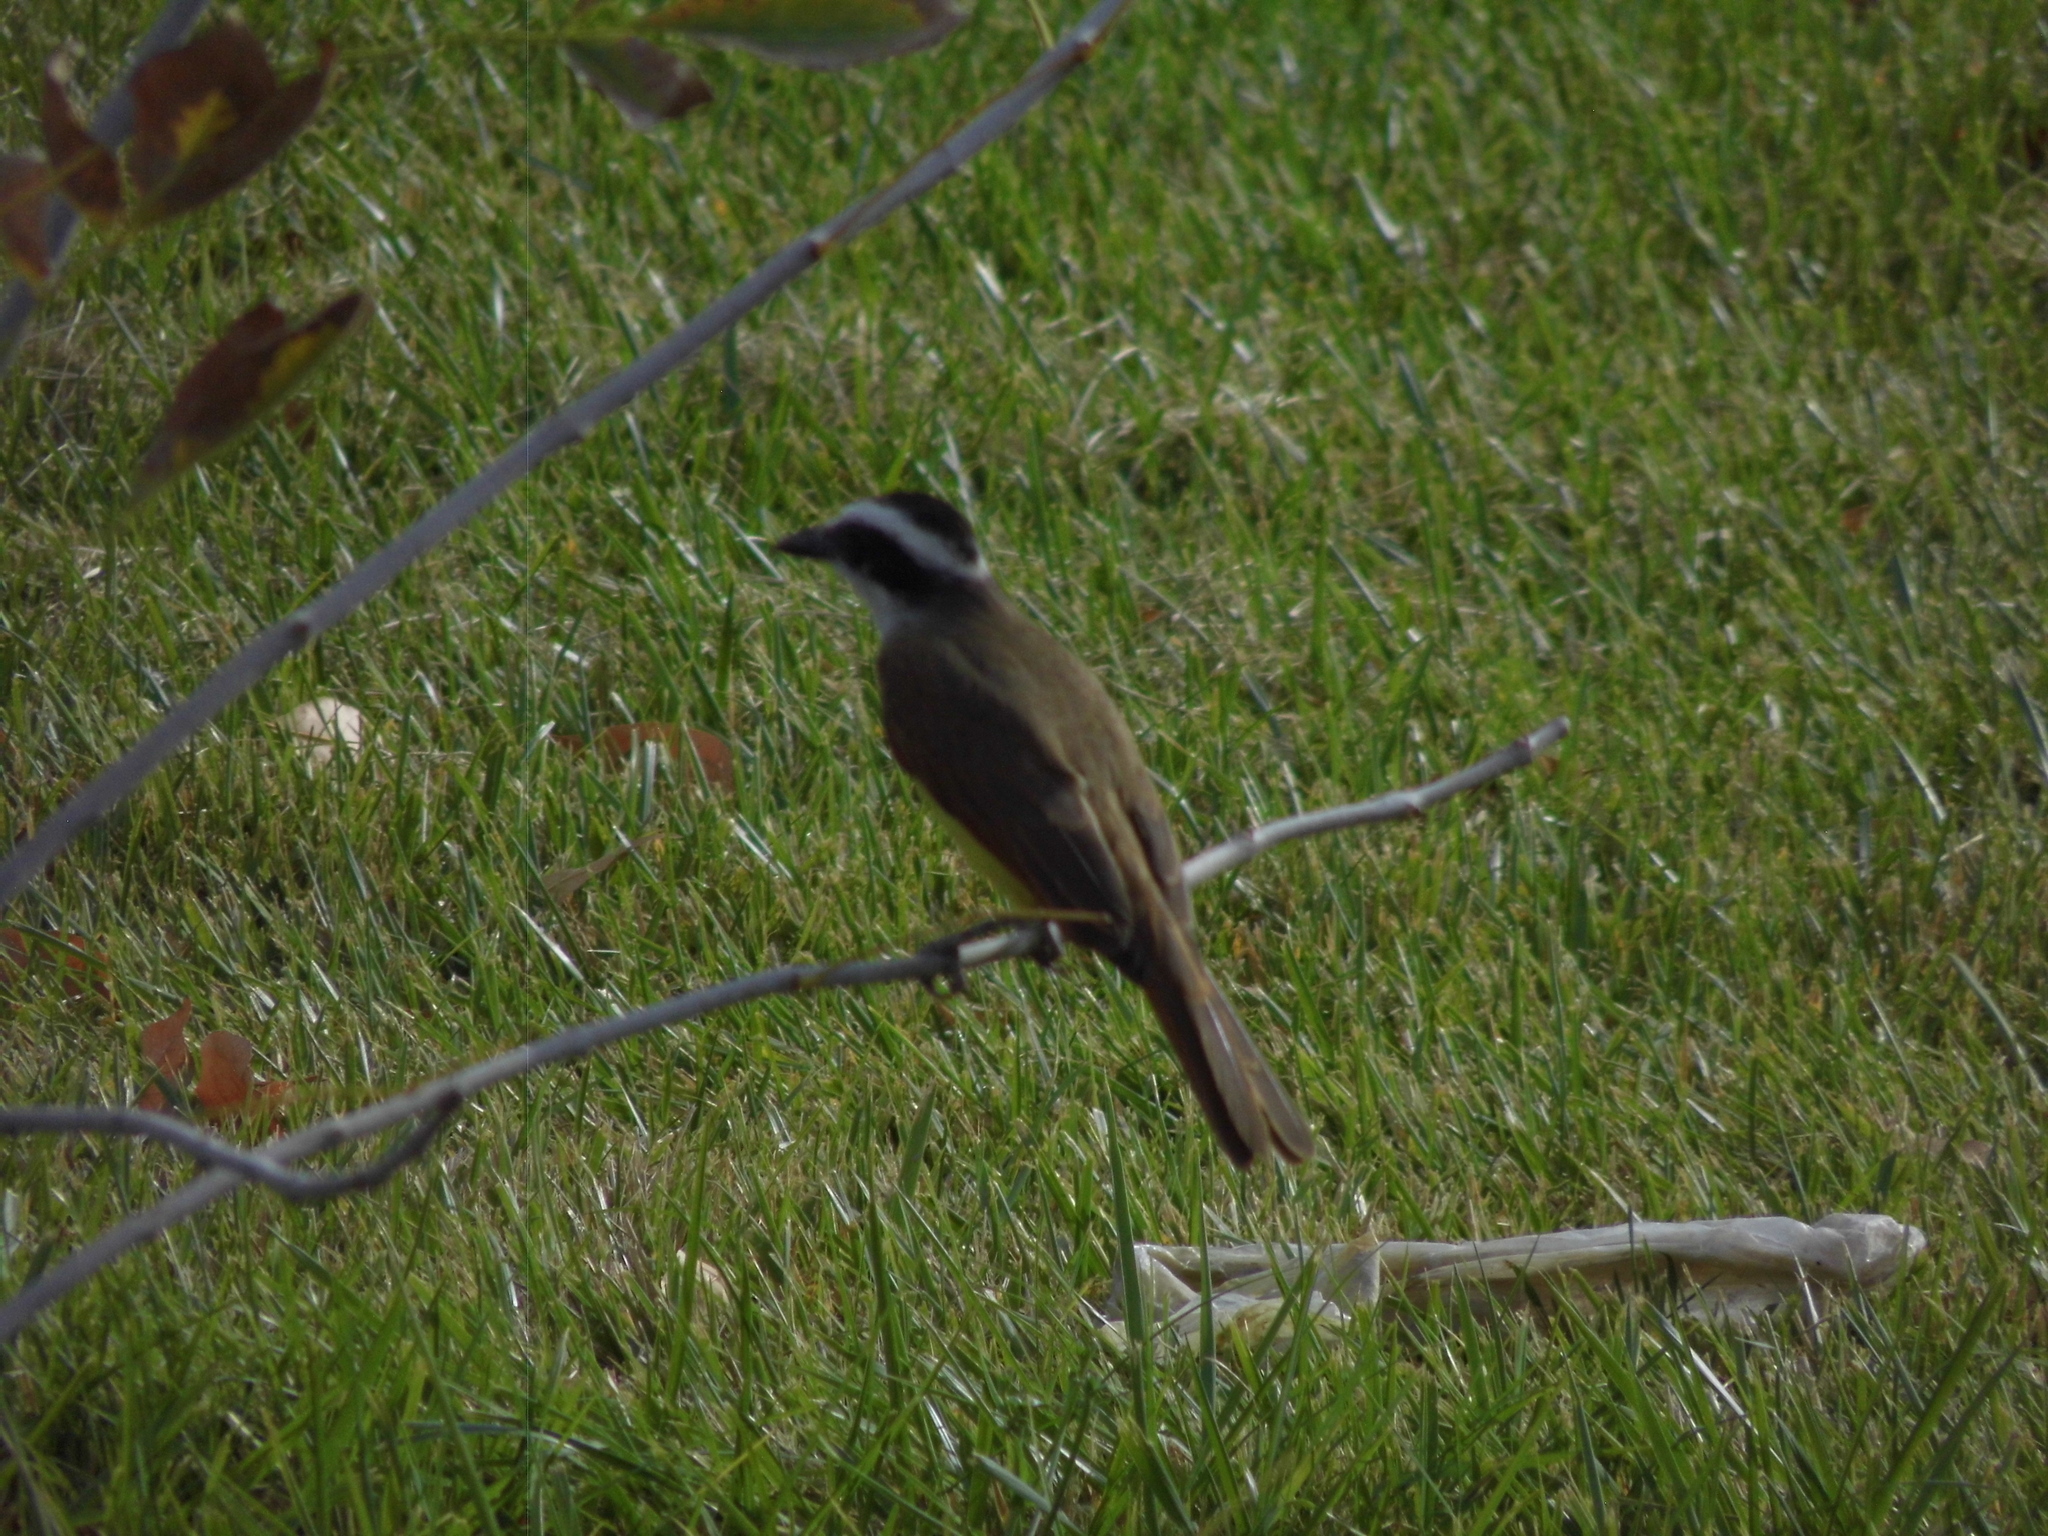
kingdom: Animalia
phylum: Chordata
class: Aves
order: Passeriformes
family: Tyrannidae
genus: Pitangus
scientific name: Pitangus sulphuratus
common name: Great kiskadee
